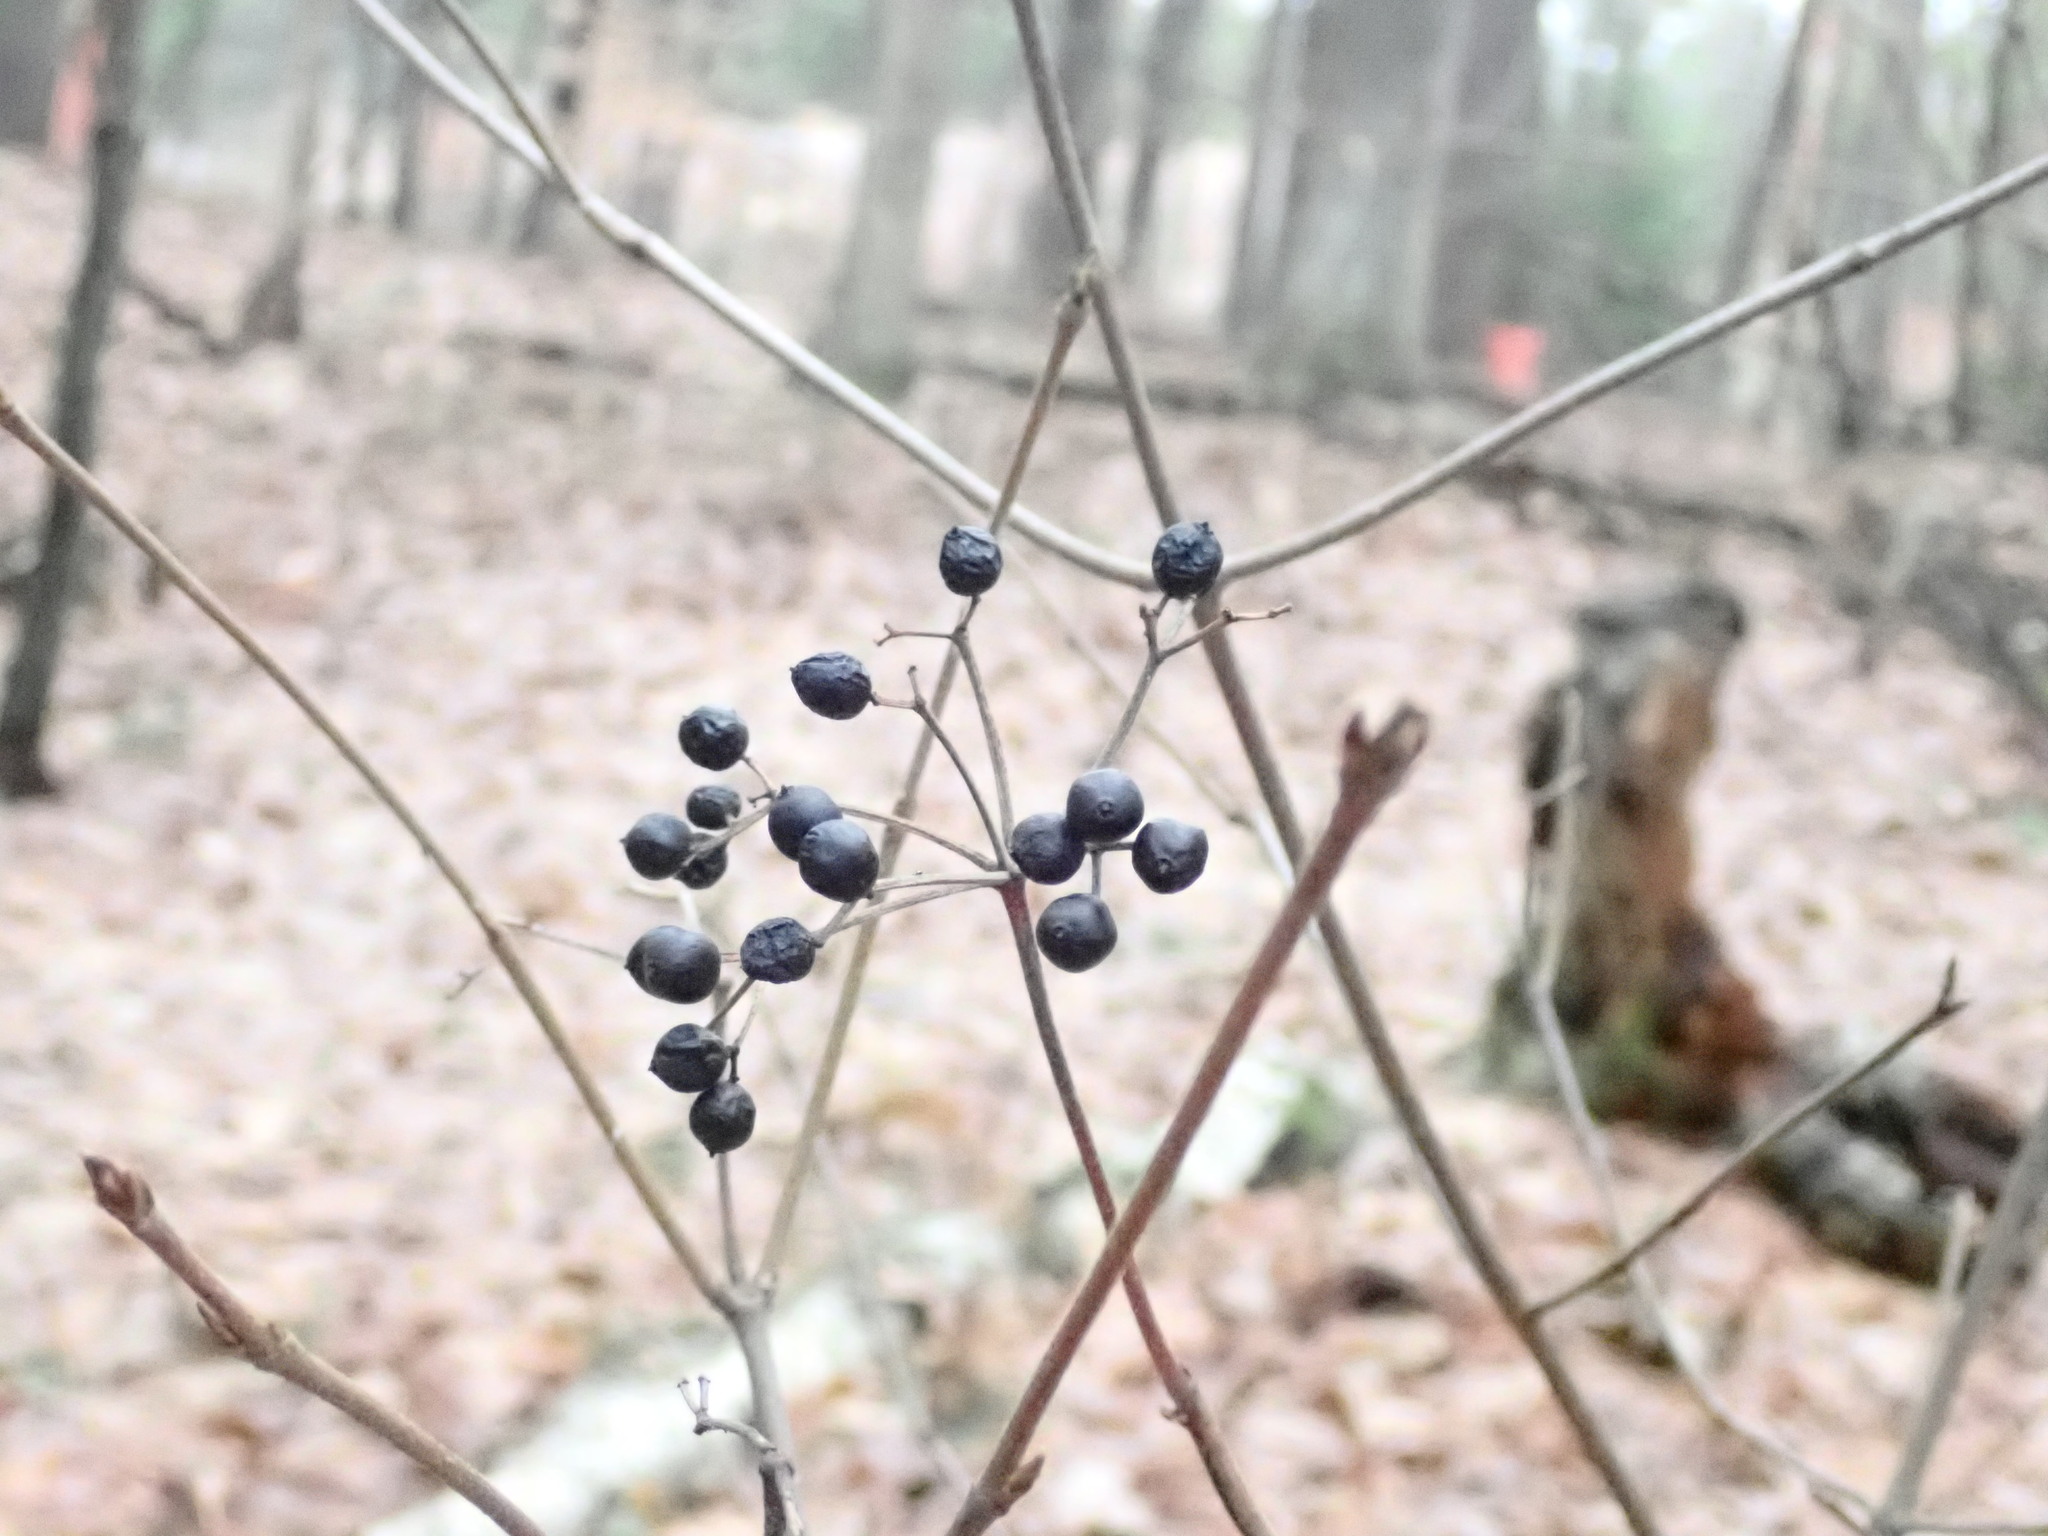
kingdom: Plantae
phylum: Tracheophyta
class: Magnoliopsida
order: Dipsacales
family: Viburnaceae
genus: Viburnum
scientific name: Viburnum acerifolium
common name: Dockmackie
